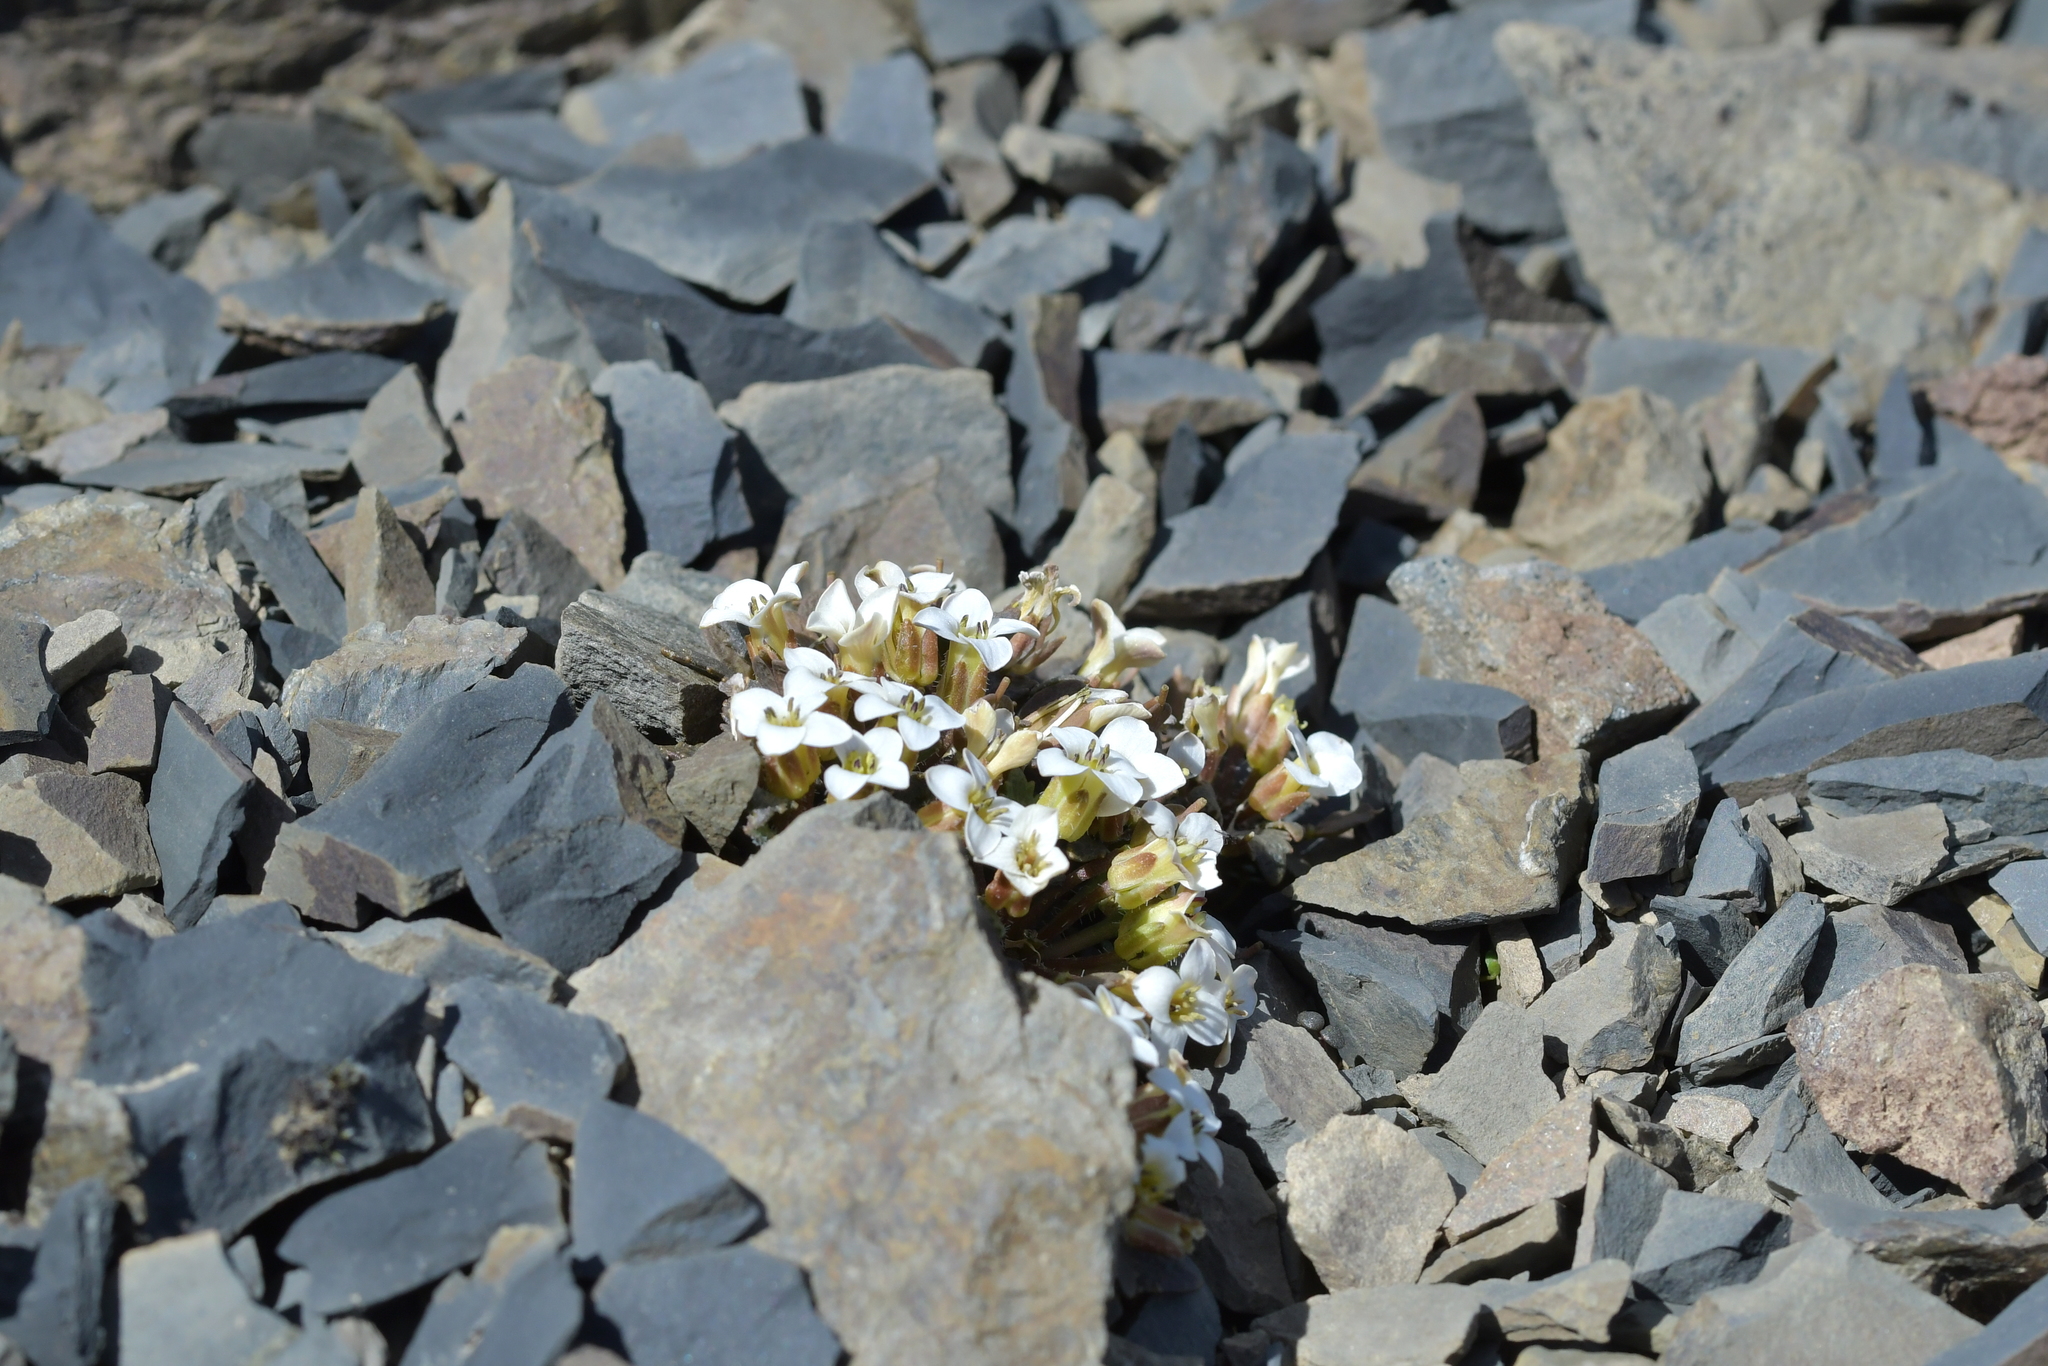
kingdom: Plantae
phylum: Tracheophyta
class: Magnoliopsida
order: Brassicales
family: Brassicaceae
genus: Notothlaspi
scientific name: Notothlaspi australe
